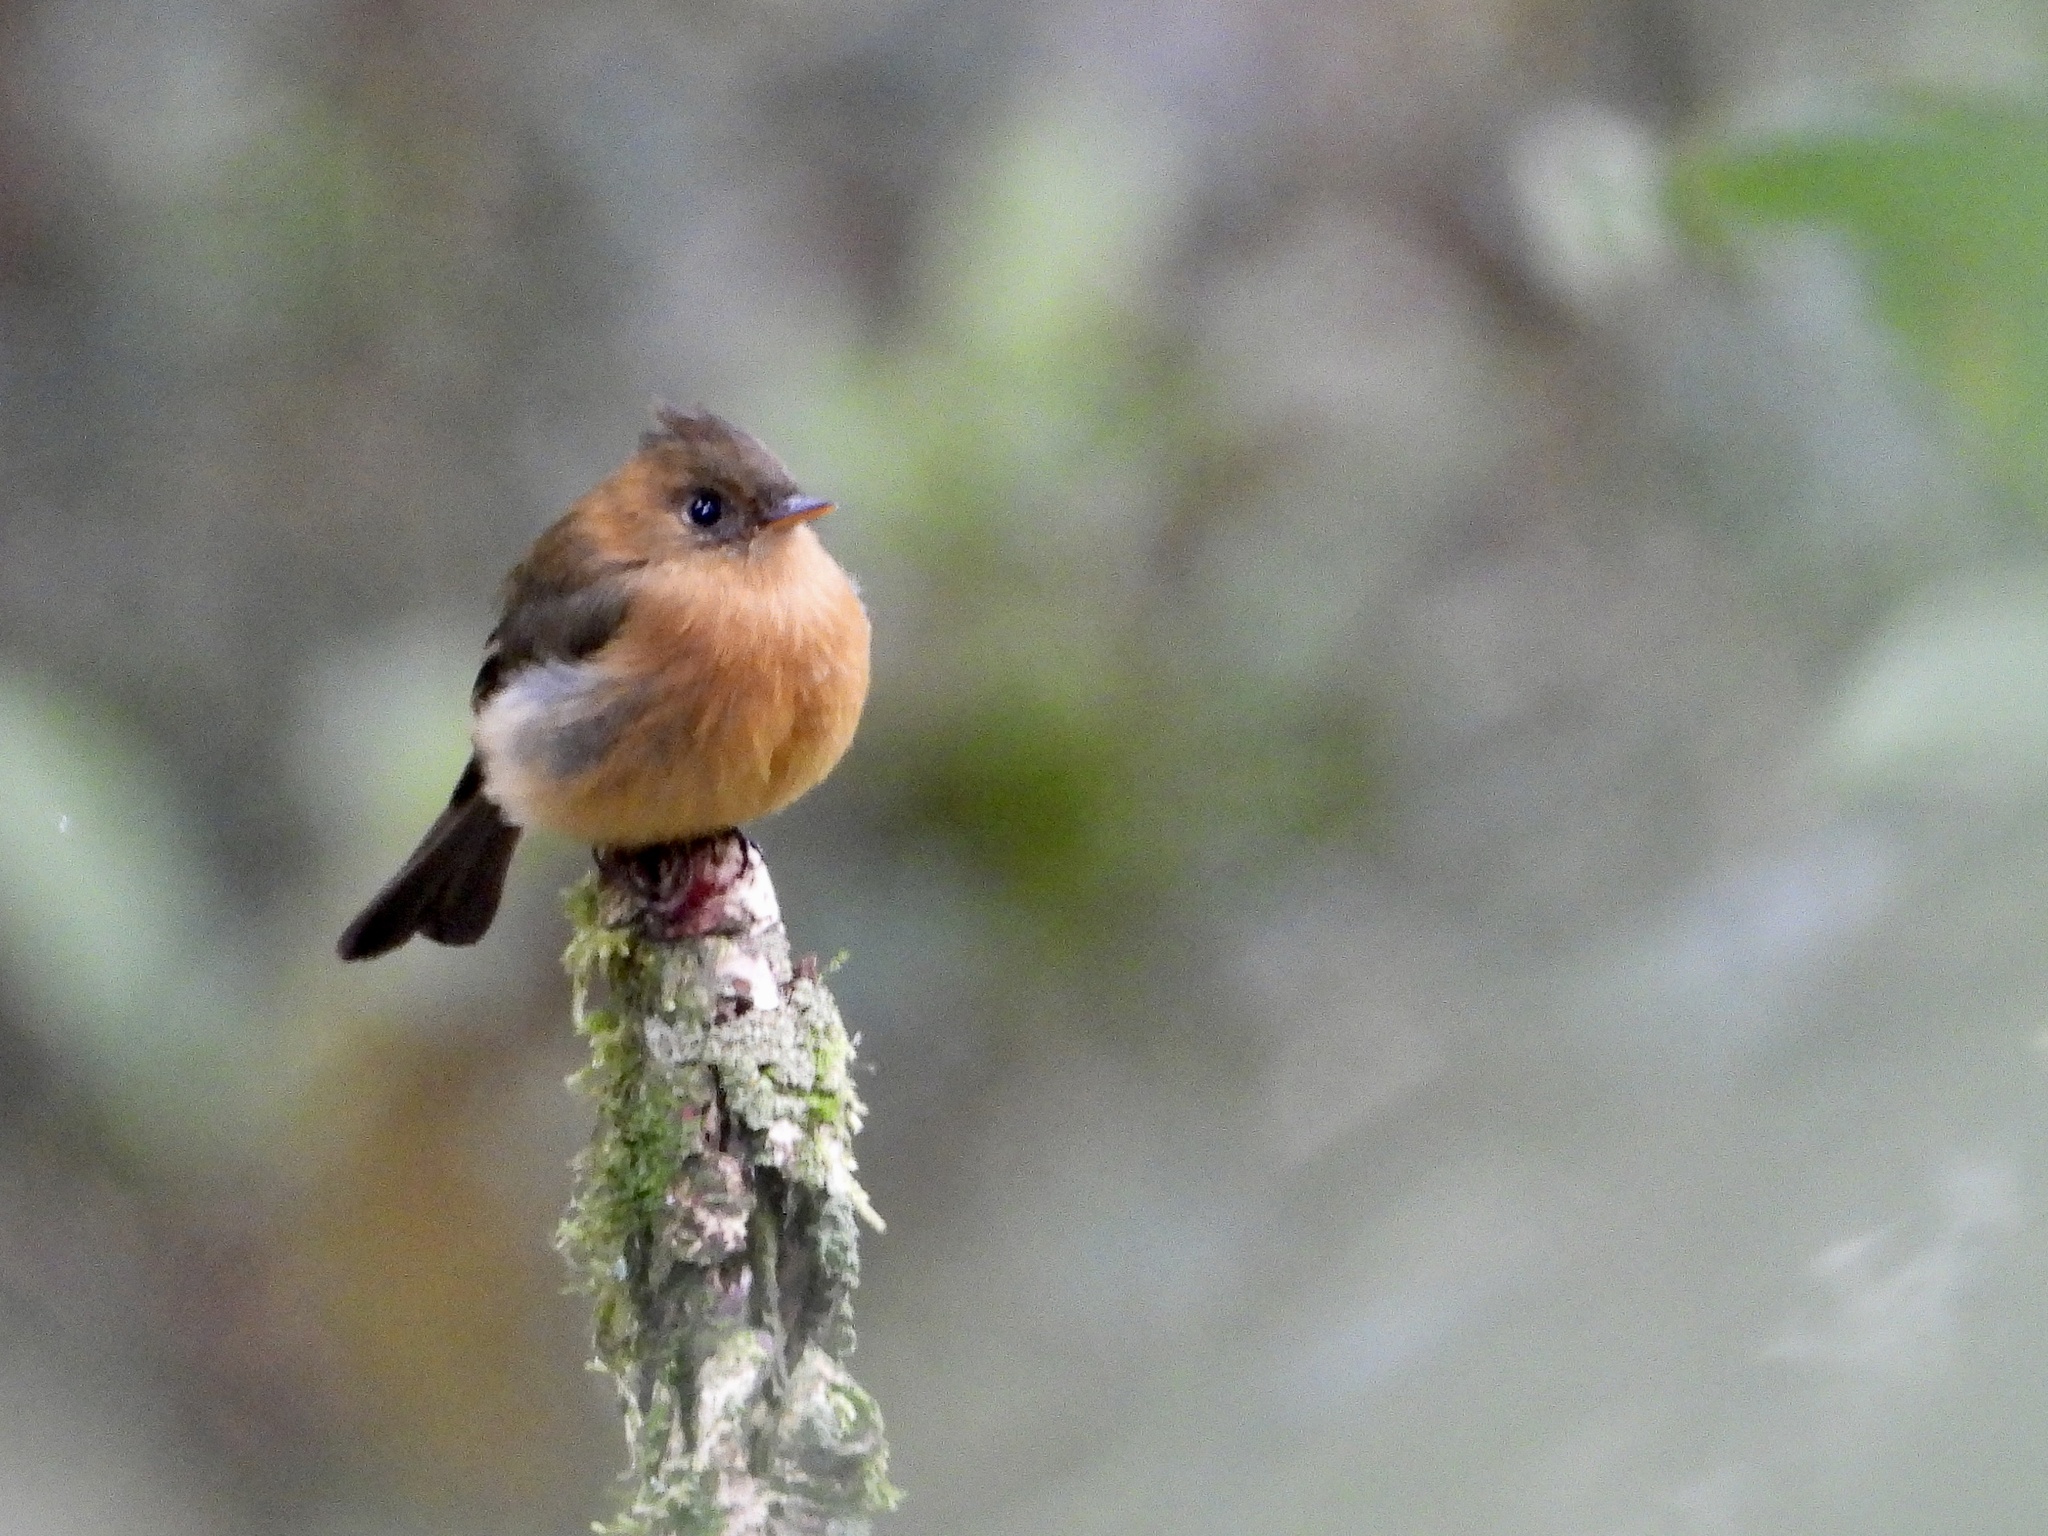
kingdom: Animalia
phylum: Chordata
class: Aves
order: Passeriformes
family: Tyrannidae
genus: Mitrephanes
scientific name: Mitrephanes phaeocercus
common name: Northern tufted flycatcher
